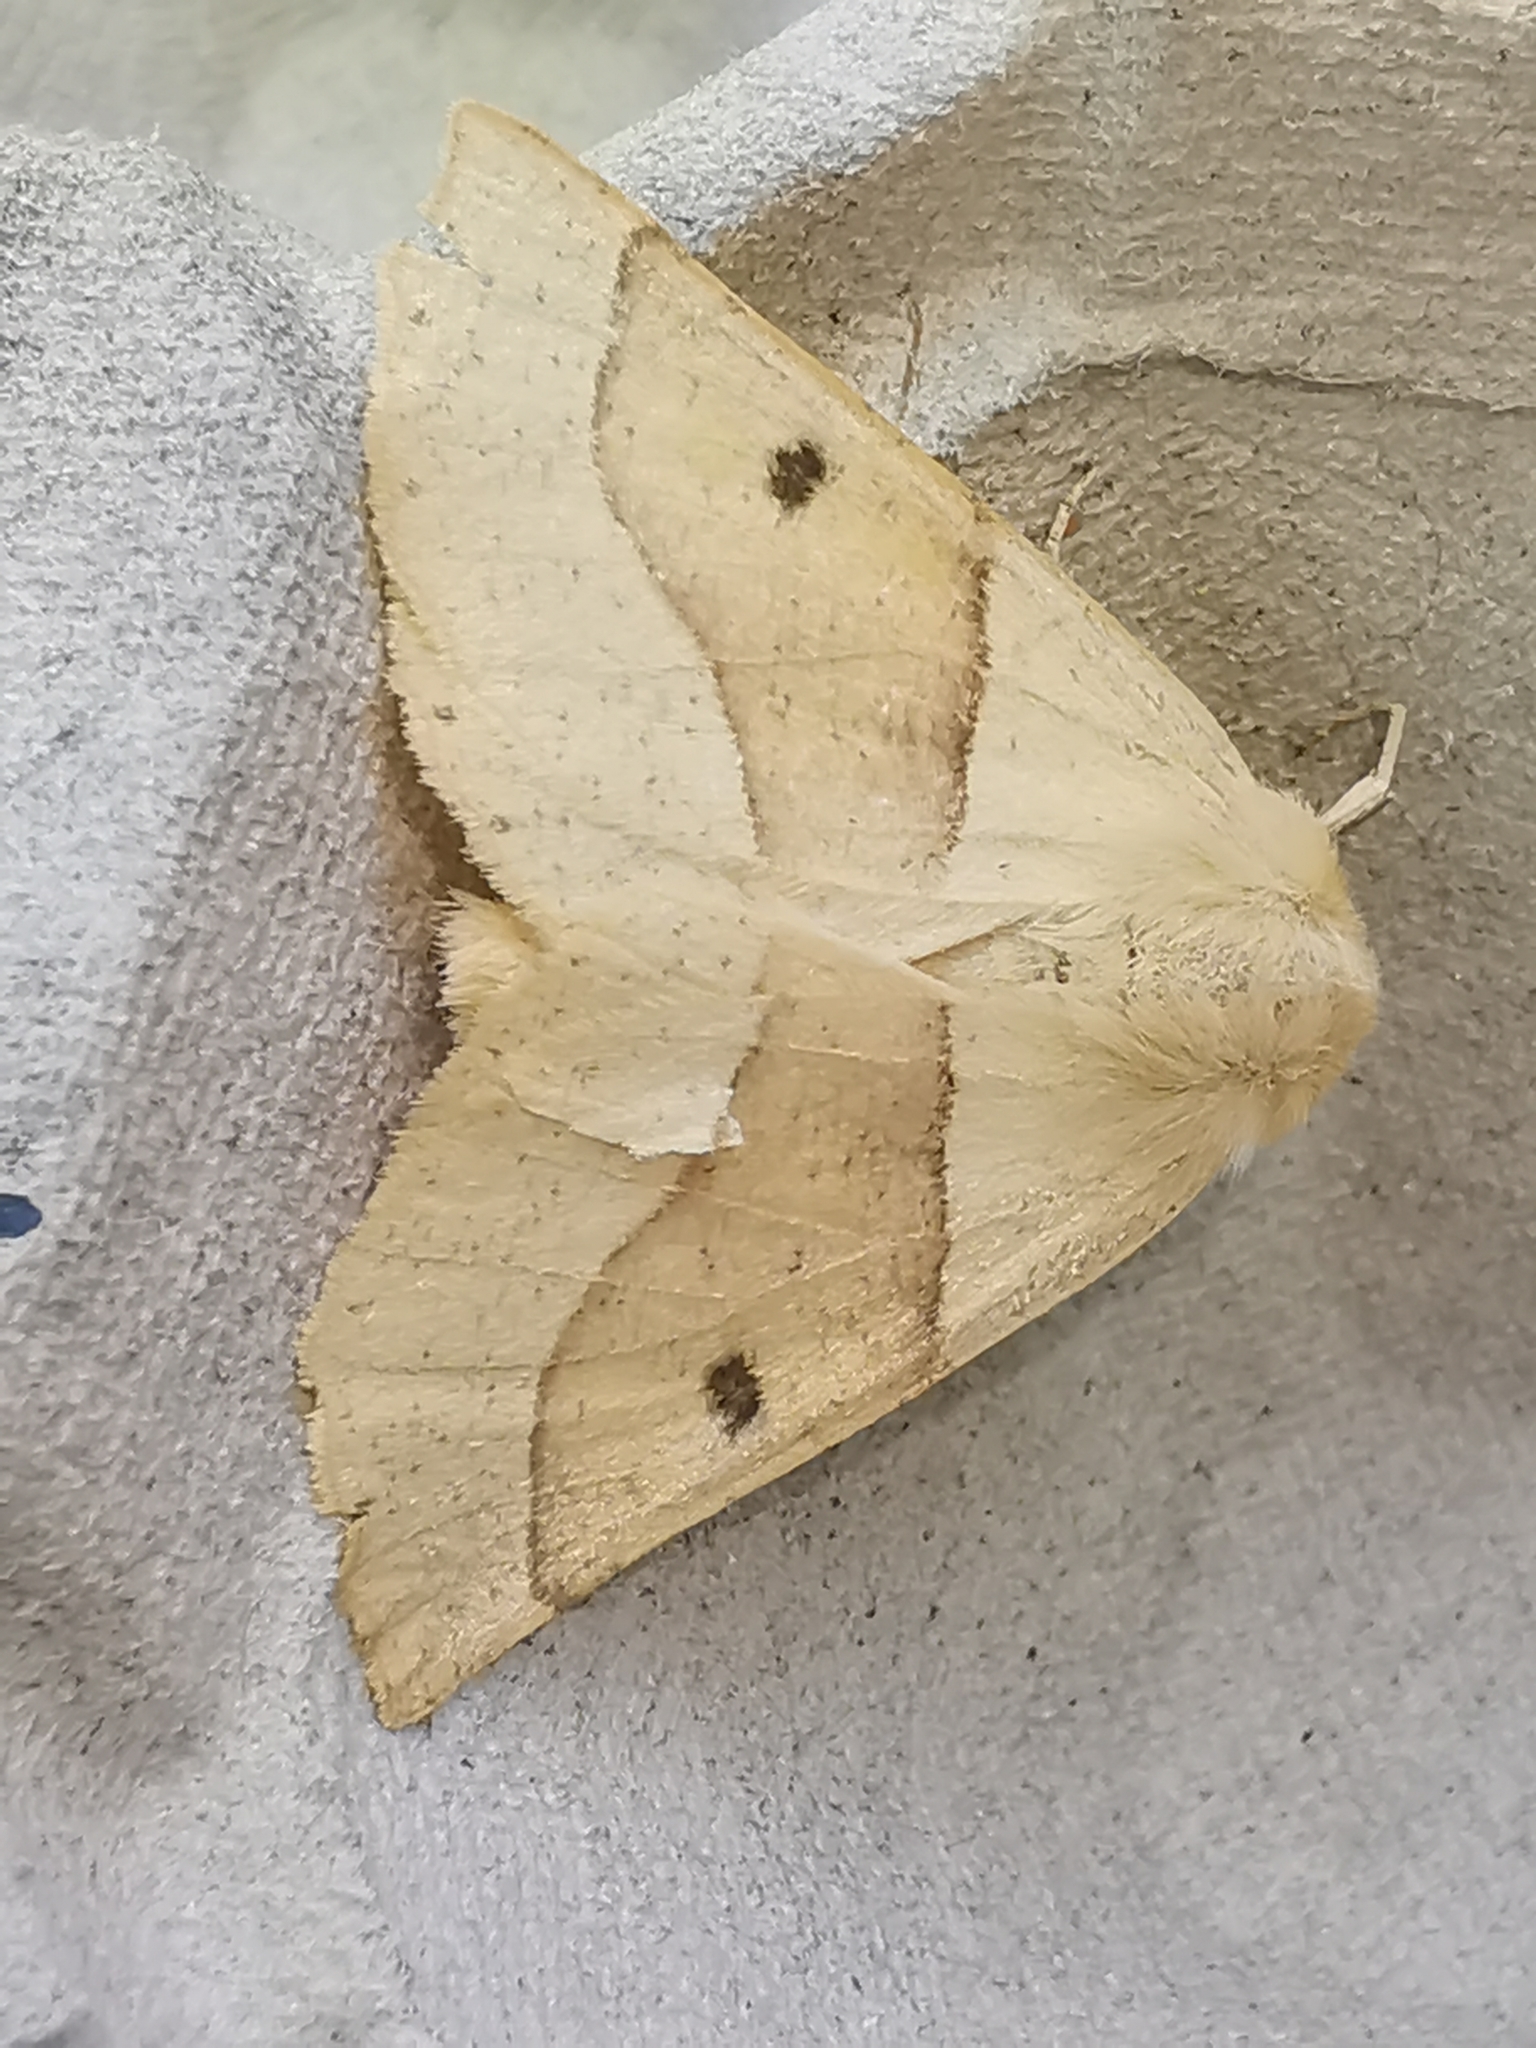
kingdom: Animalia
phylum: Arthropoda
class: Insecta
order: Lepidoptera
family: Geometridae
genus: Crocallis
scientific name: Crocallis elinguaria
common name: Scalloped oak
